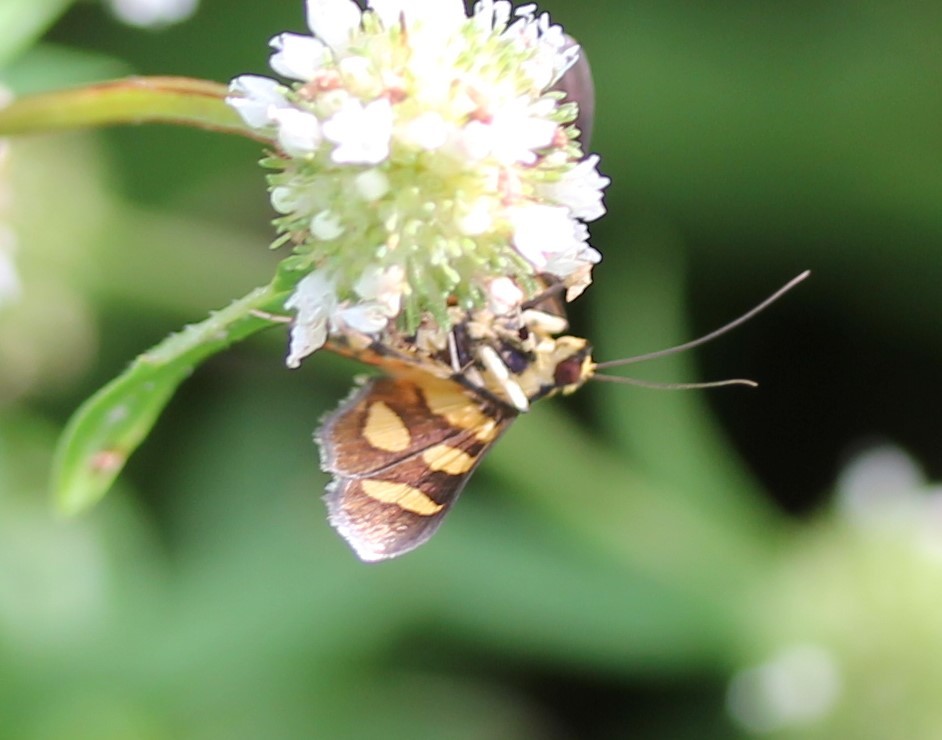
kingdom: Animalia
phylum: Arthropoda
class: Insecta
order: Lepidoptera
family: Crambidae
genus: Syngamia
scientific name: Syngamia florella
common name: Orange-spotted flower moth
